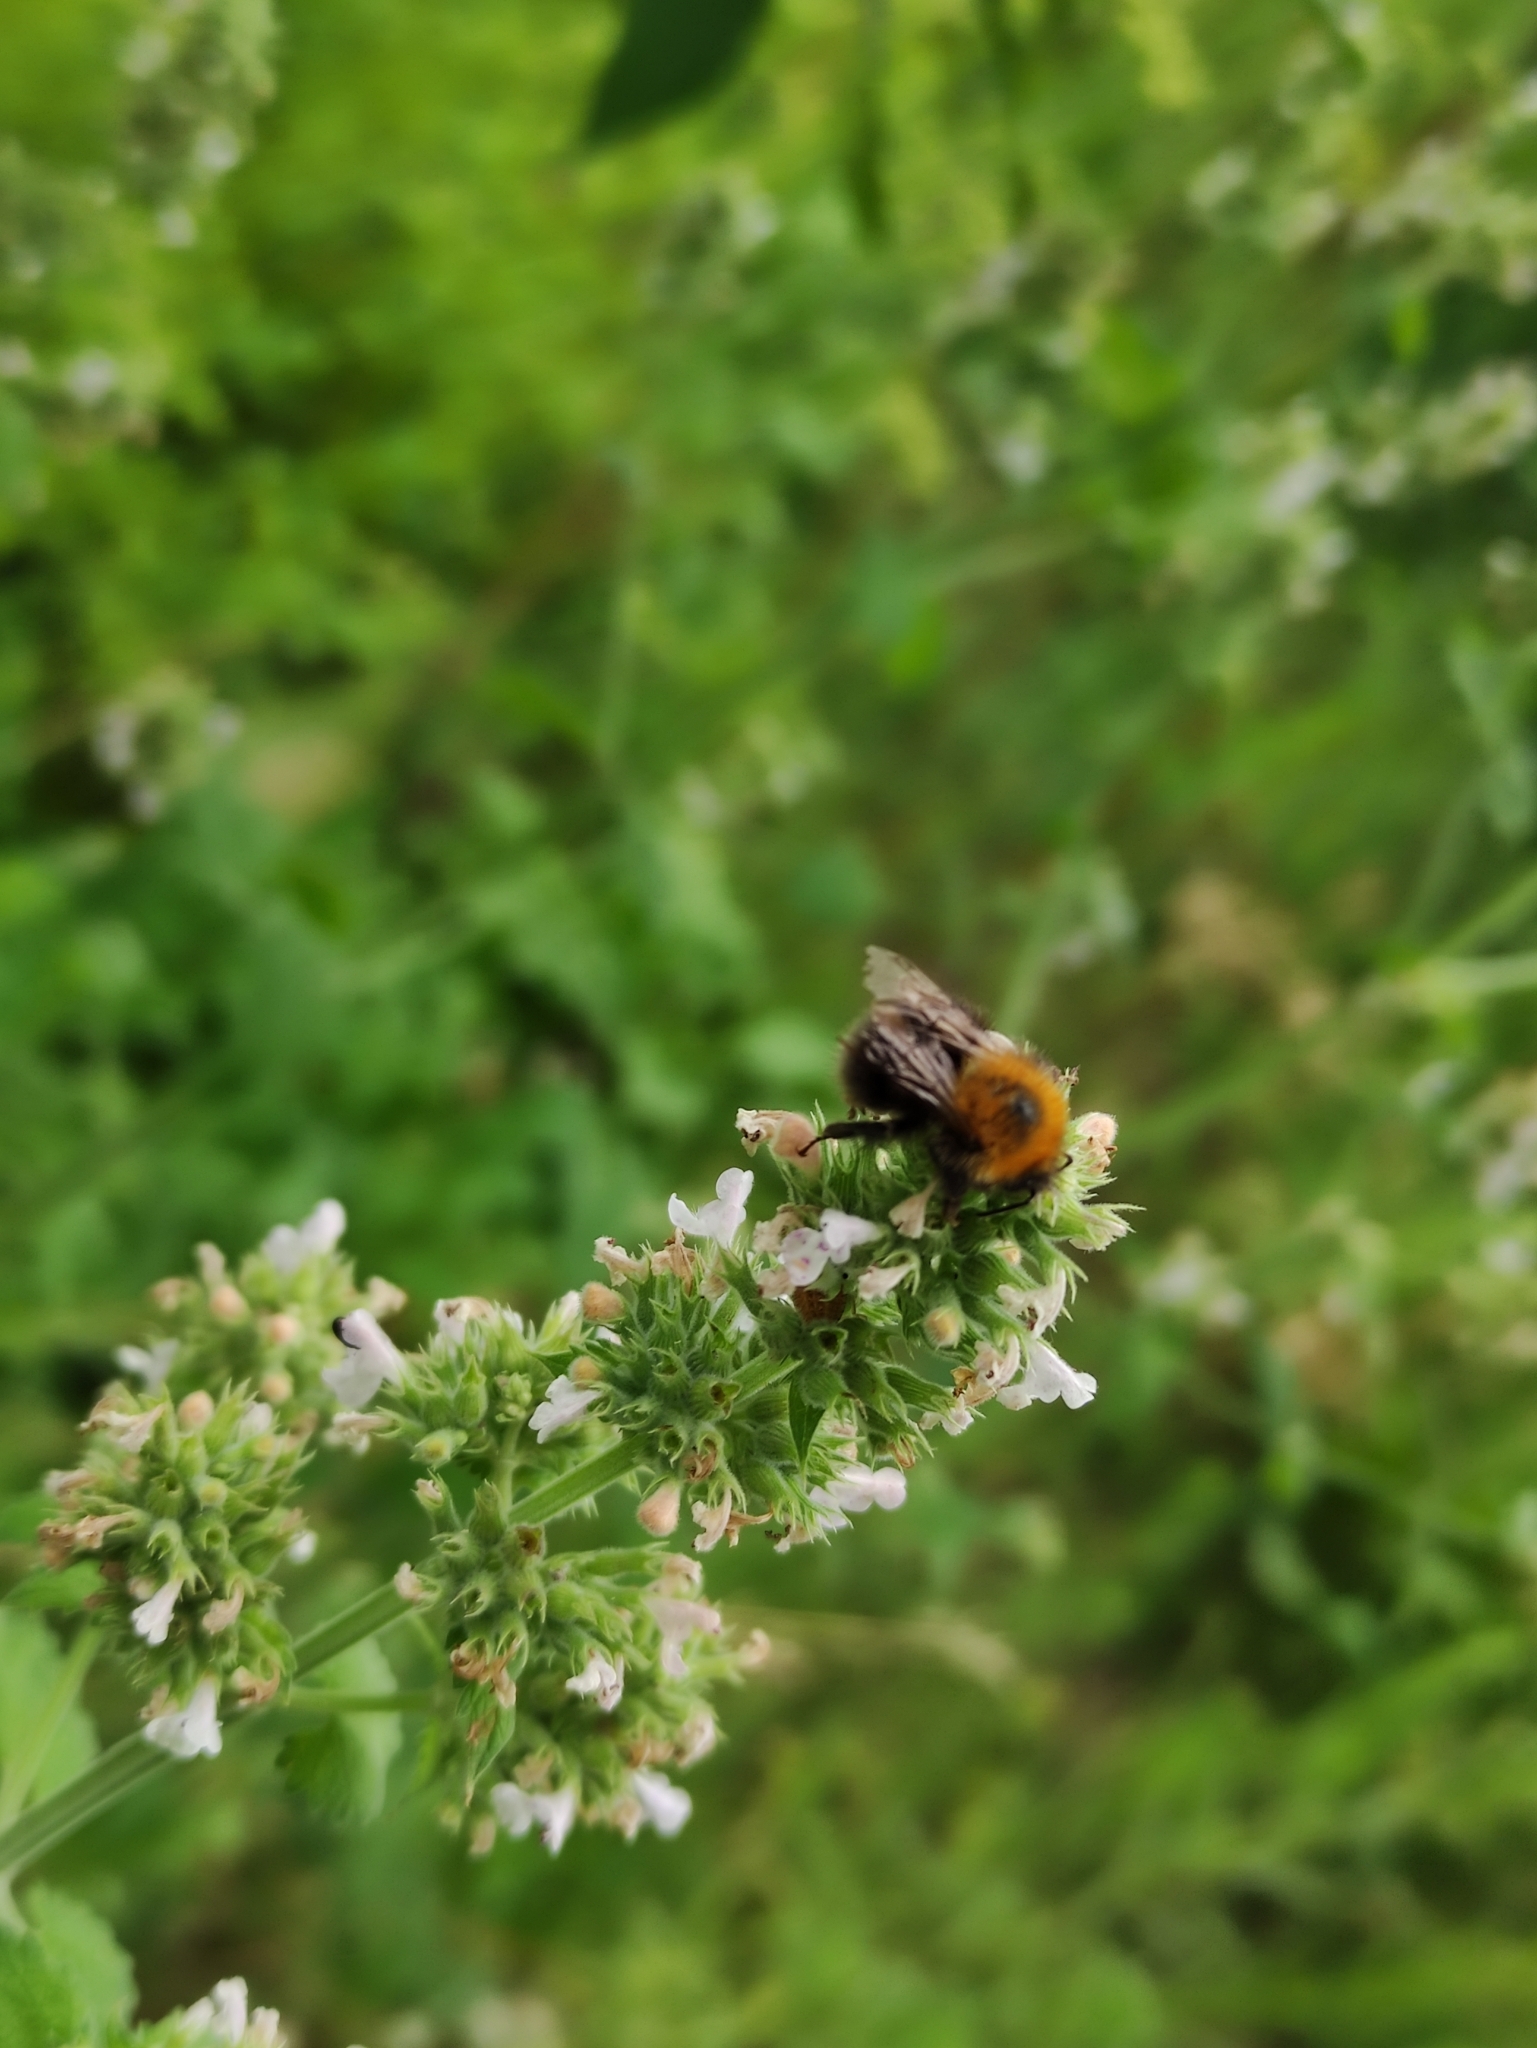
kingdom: Animalia
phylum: Arthropoda
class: Insecta
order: Hymenoptera
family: Apidae
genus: Bombus
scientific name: Bombus hypnorum
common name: New garden bumblebee
